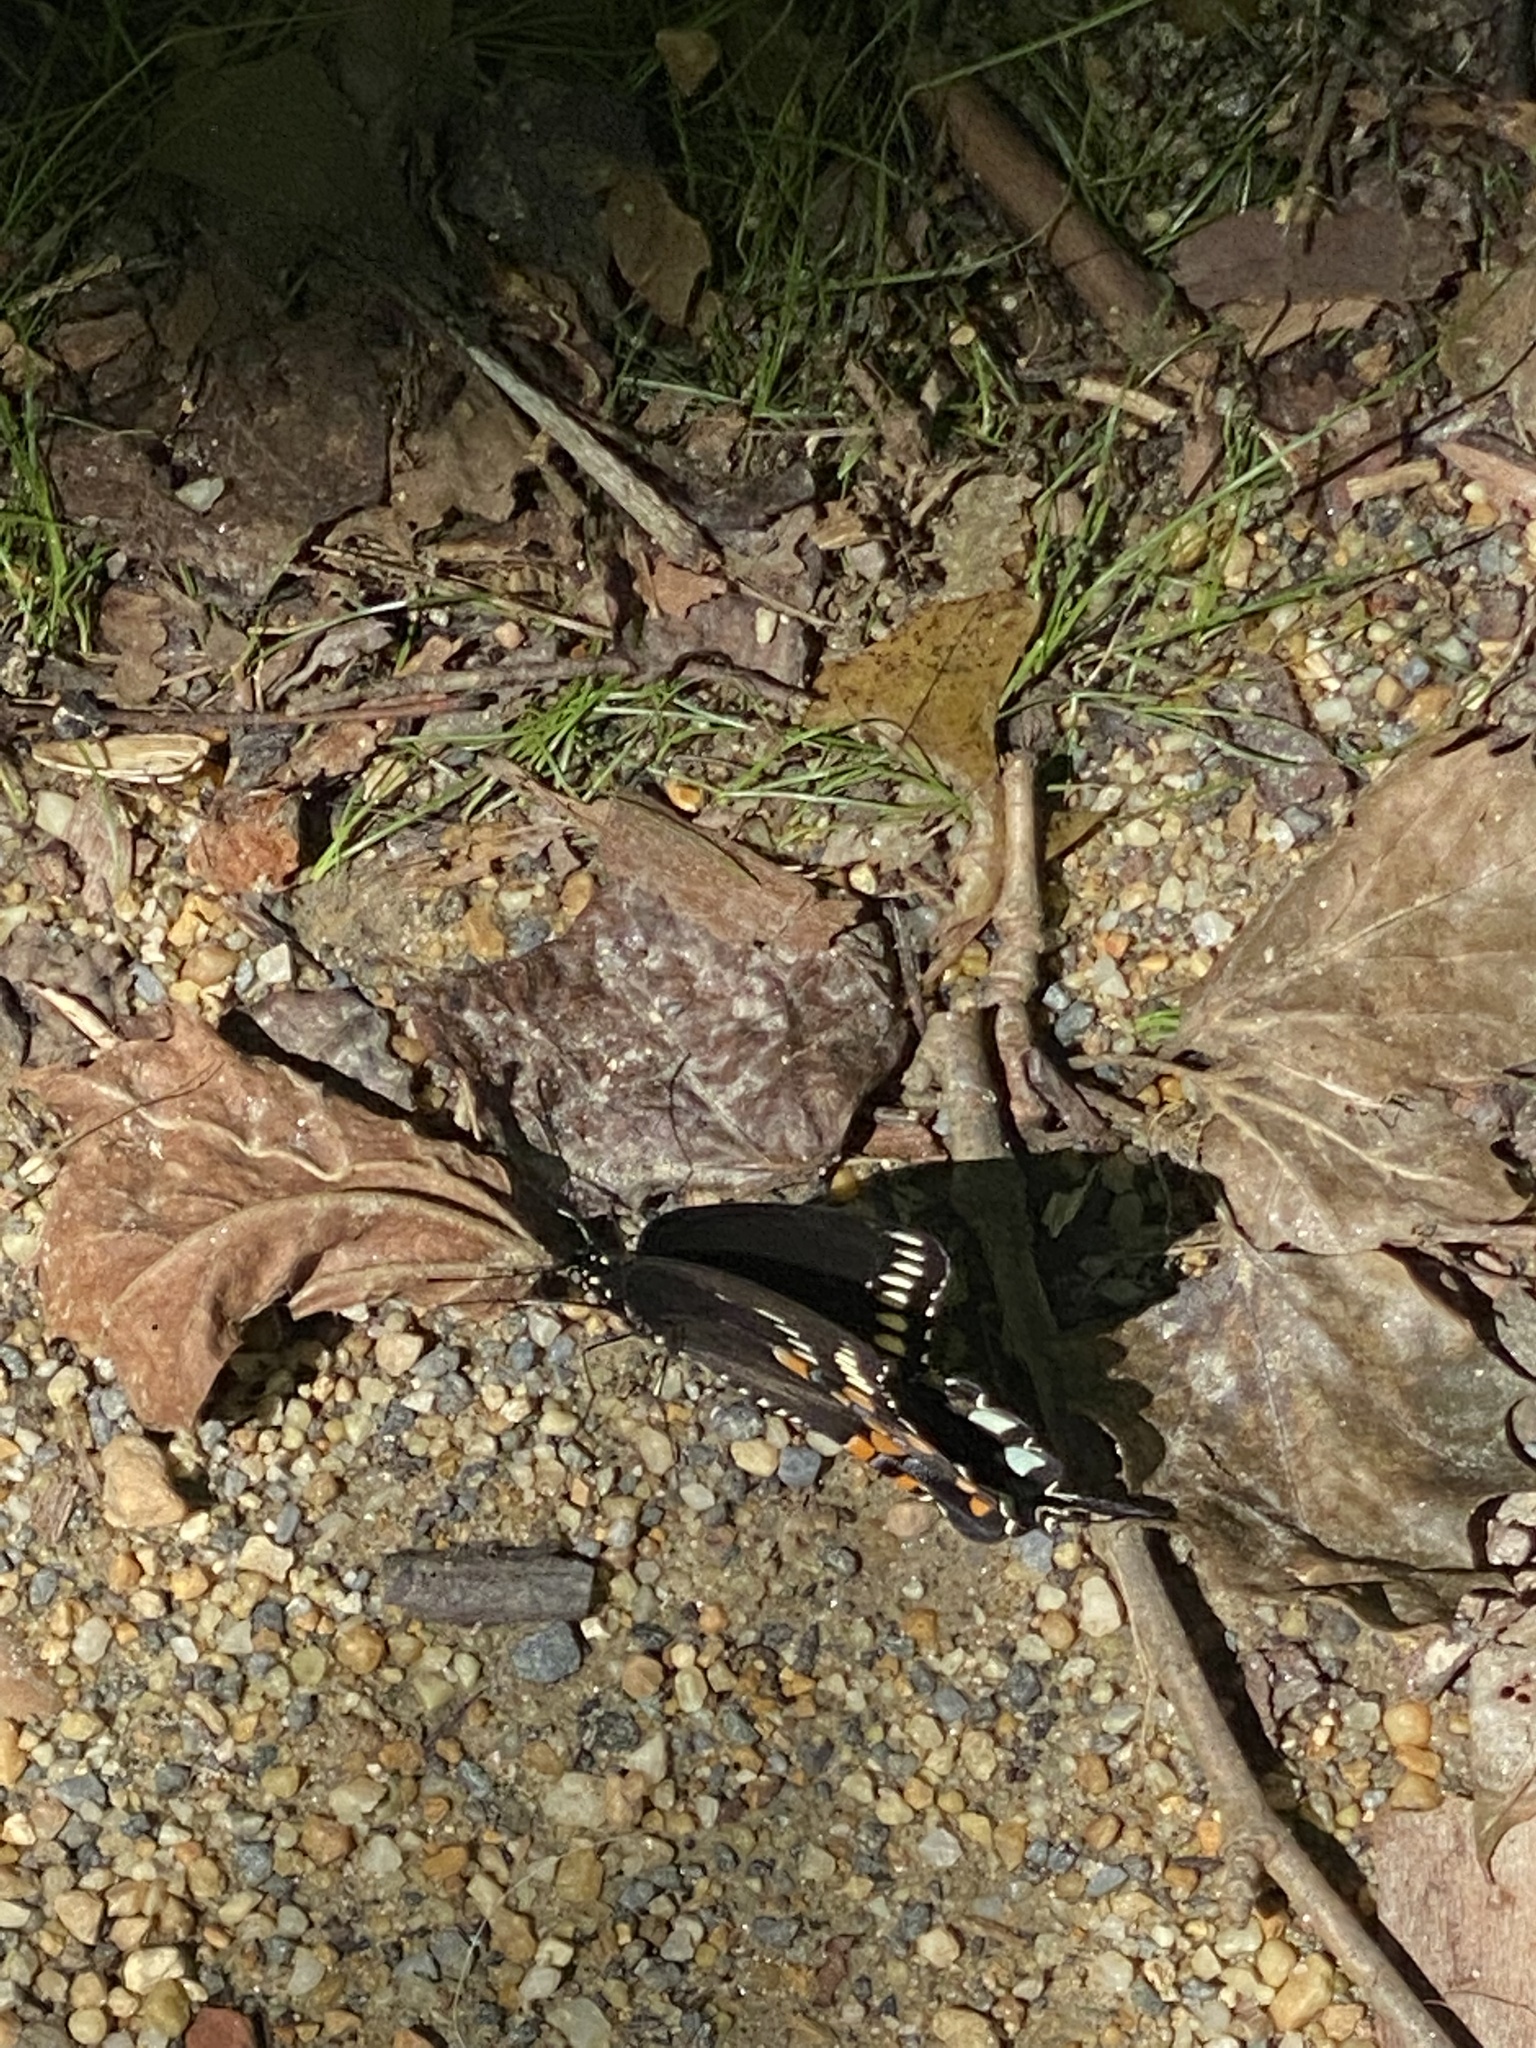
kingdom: Animalia
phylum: Arthropoda
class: Insecta
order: Lepidoptera
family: Papilionidae
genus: Papilio
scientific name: Papilio troilus
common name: Spicebush swallowtail
